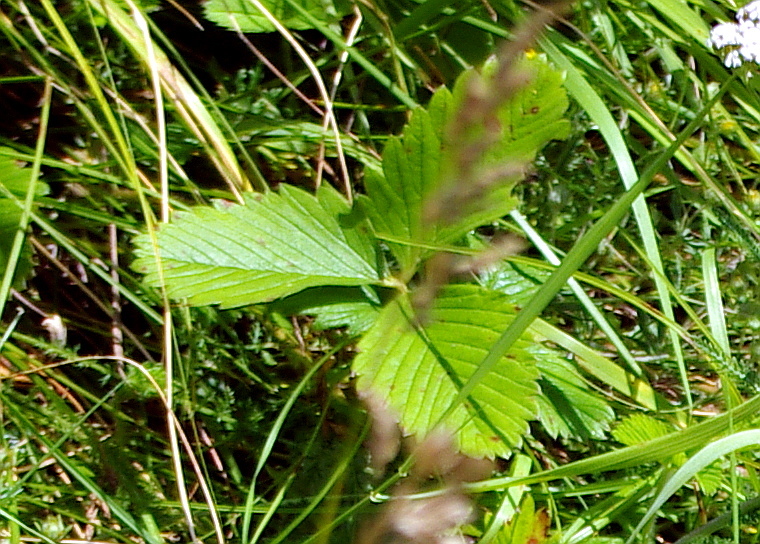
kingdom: Plantae
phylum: Tracheophyta
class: Magnoliopsida
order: Rosales
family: Rosaceae
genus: Fragaria
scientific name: Fragaria vesca
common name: Wild strawberry
